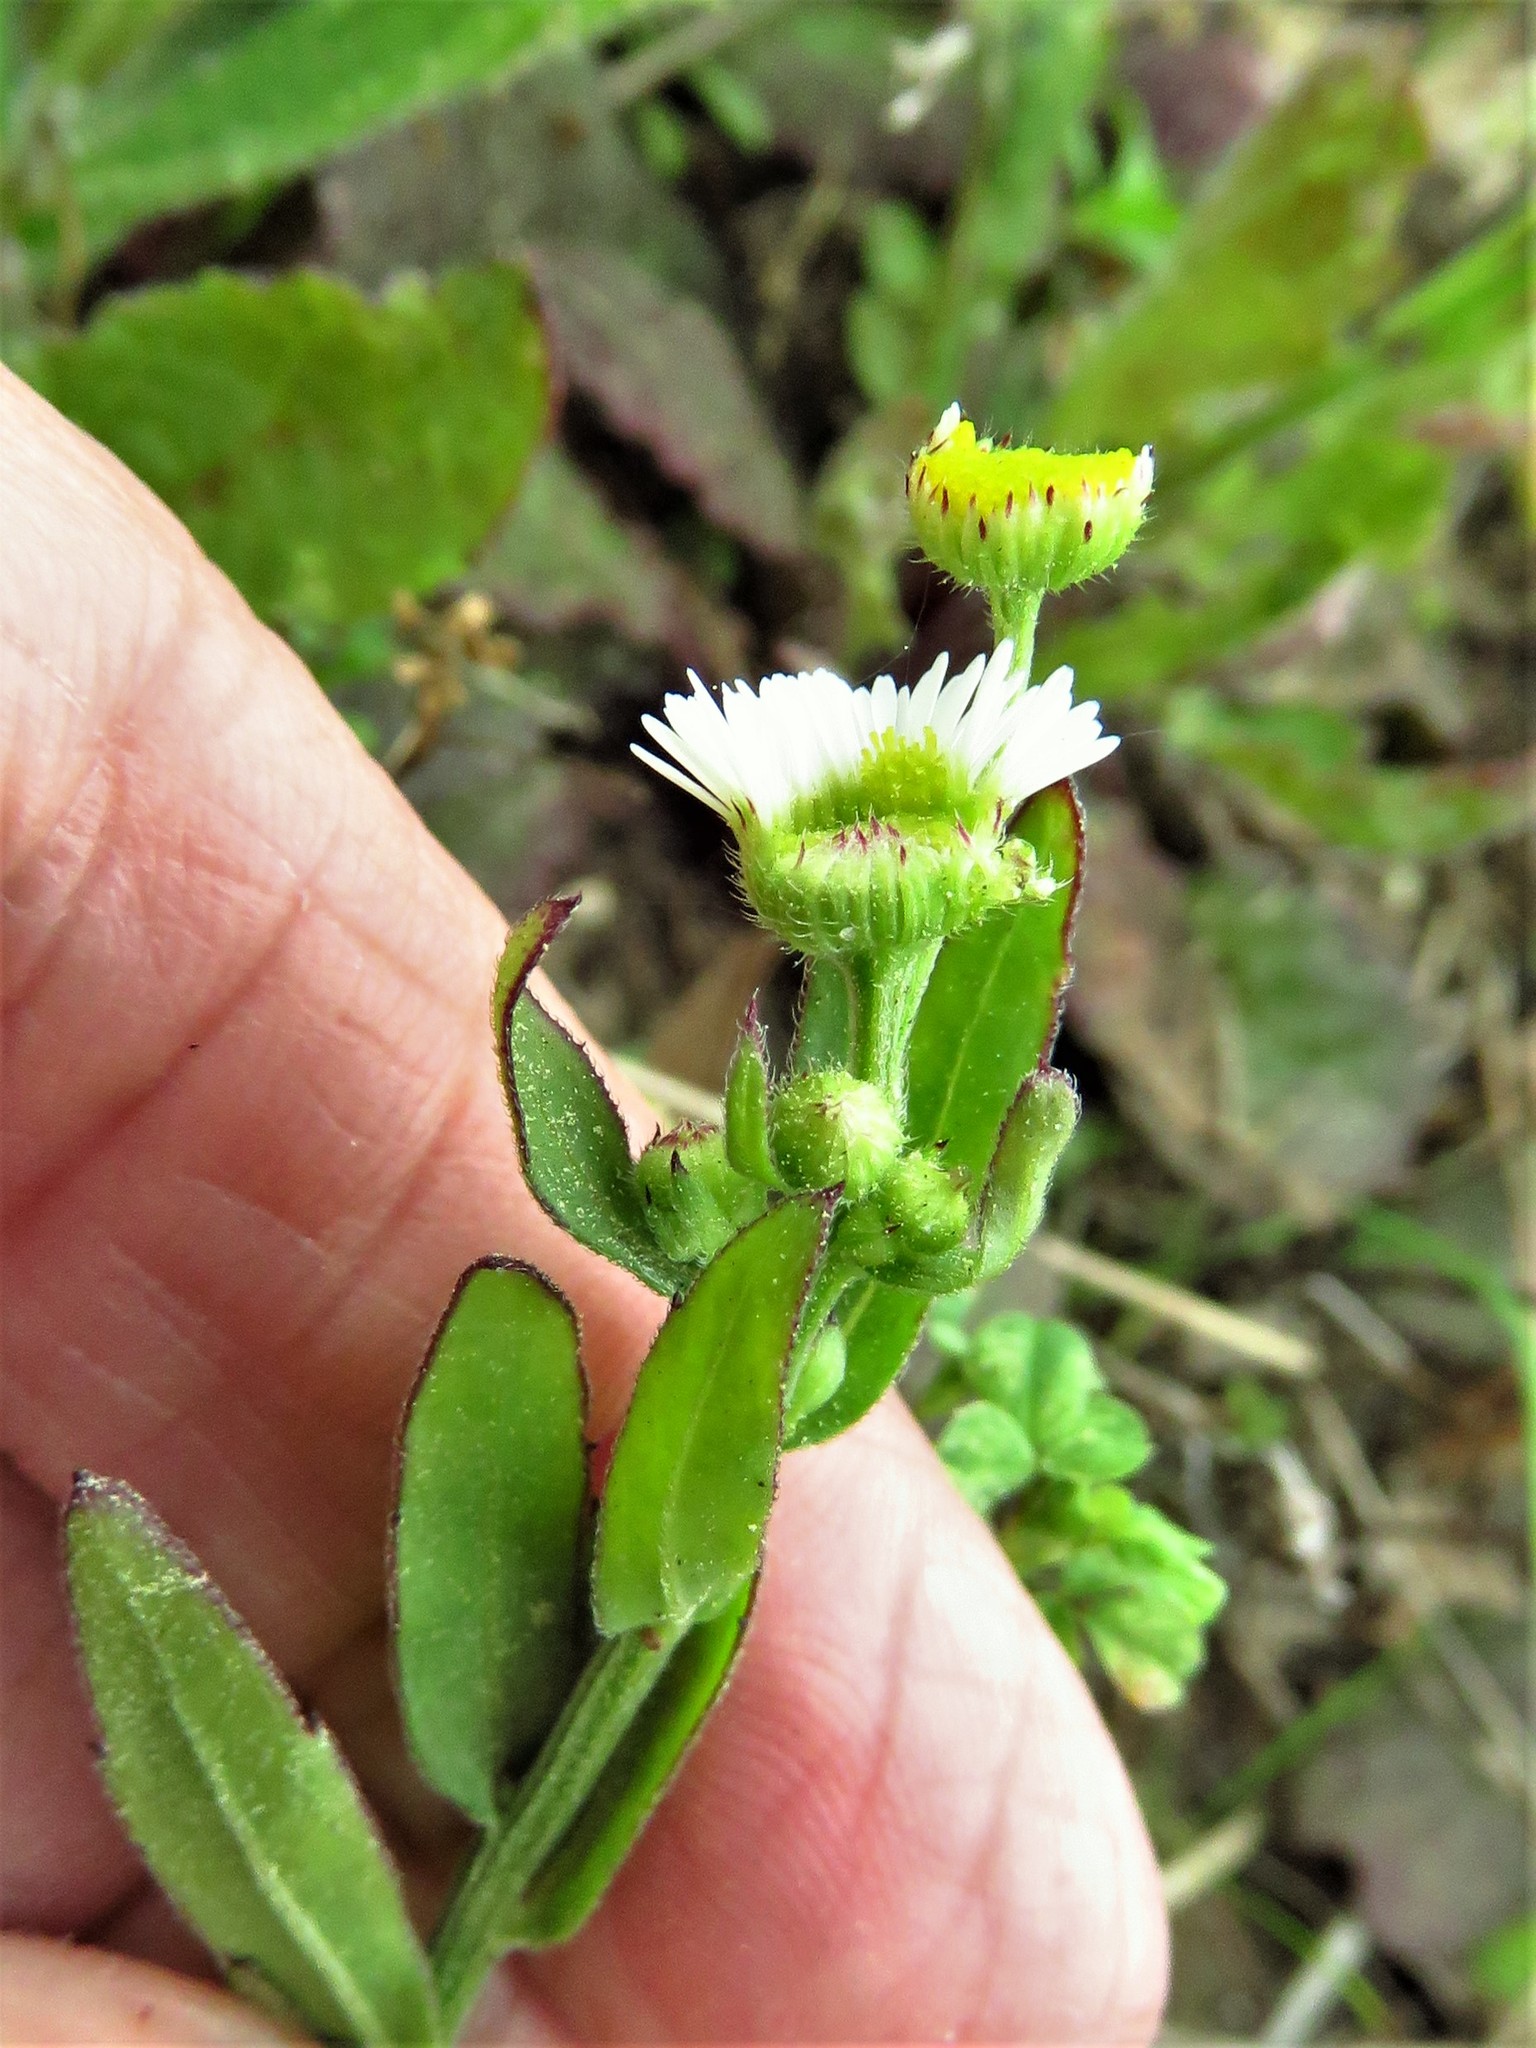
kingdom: Plantae
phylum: Tracheophyta
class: Magnoliopsida
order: Asterales
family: Asteraceae
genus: Erigeron
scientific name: Erigeron philadelphicus
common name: Robin's-plantain
